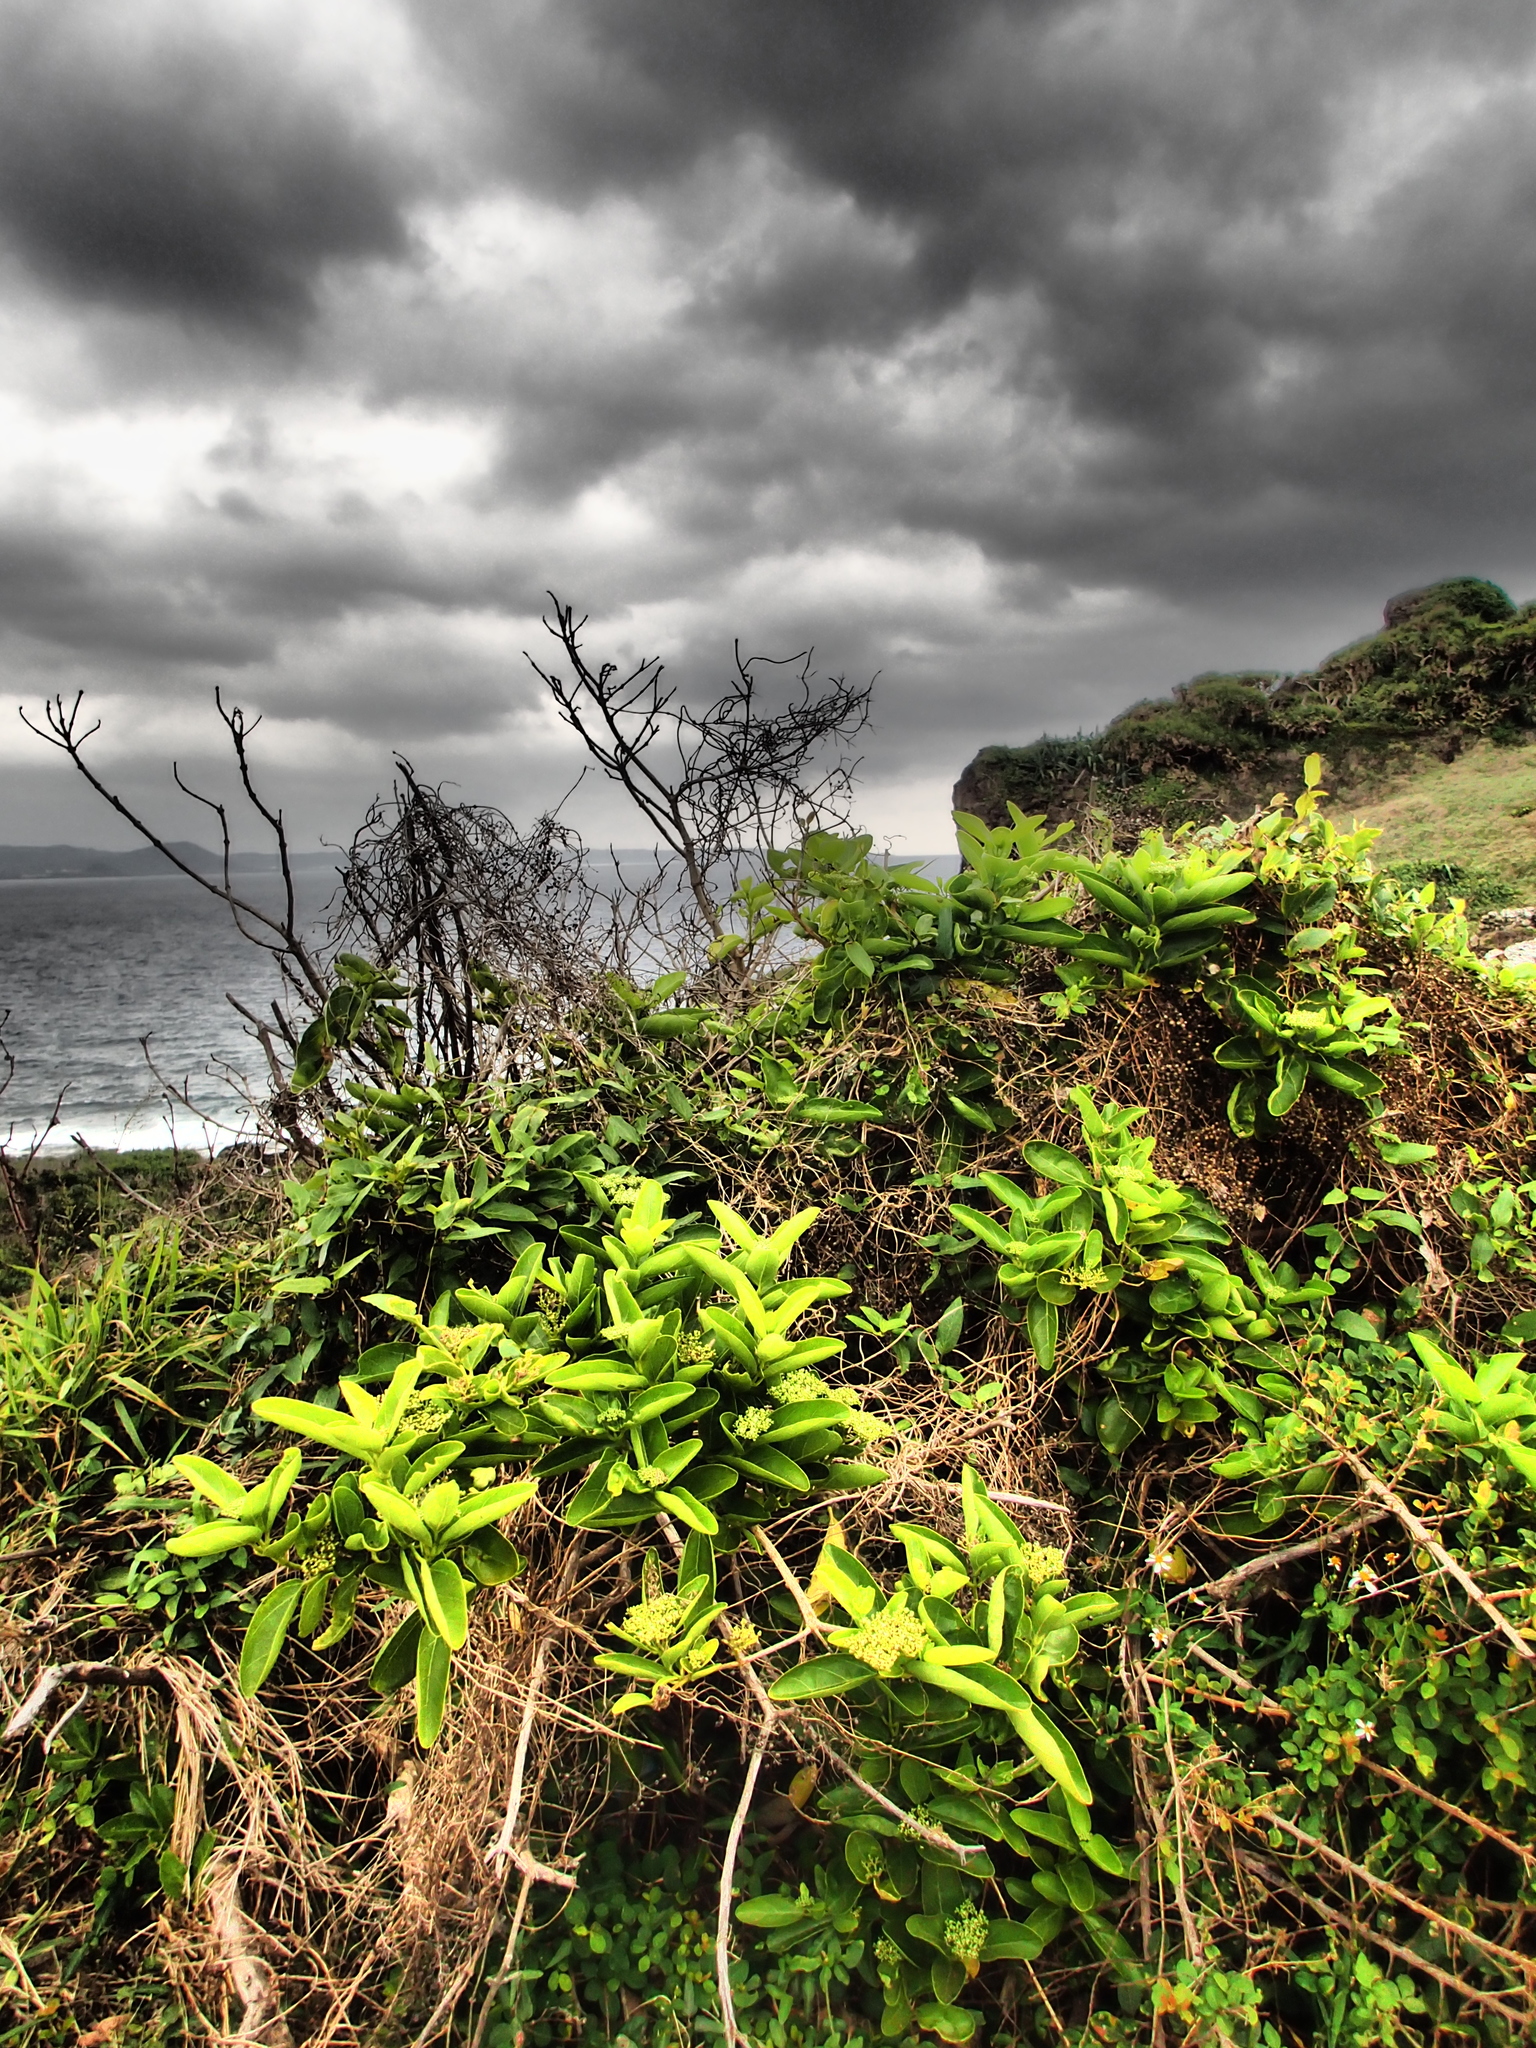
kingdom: Plantae
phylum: Tracheophyta
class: Magnoliopsida
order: Lamiales
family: Lamiaceae
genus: Premna
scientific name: Premna serratifolia
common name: Bastard guelder
